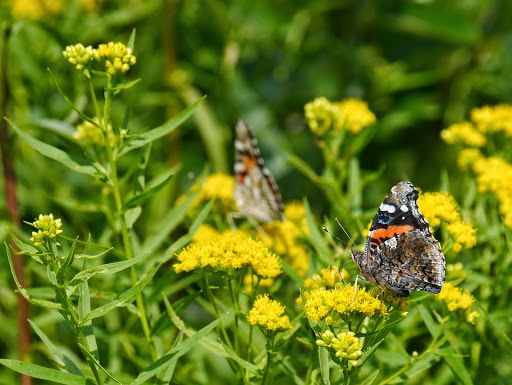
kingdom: Animalia
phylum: Arthropoda
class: Insecta
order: Lepidoptera
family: Nymphalidae
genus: Vanessa
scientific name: Vanessa atalanta
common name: Red admiral
